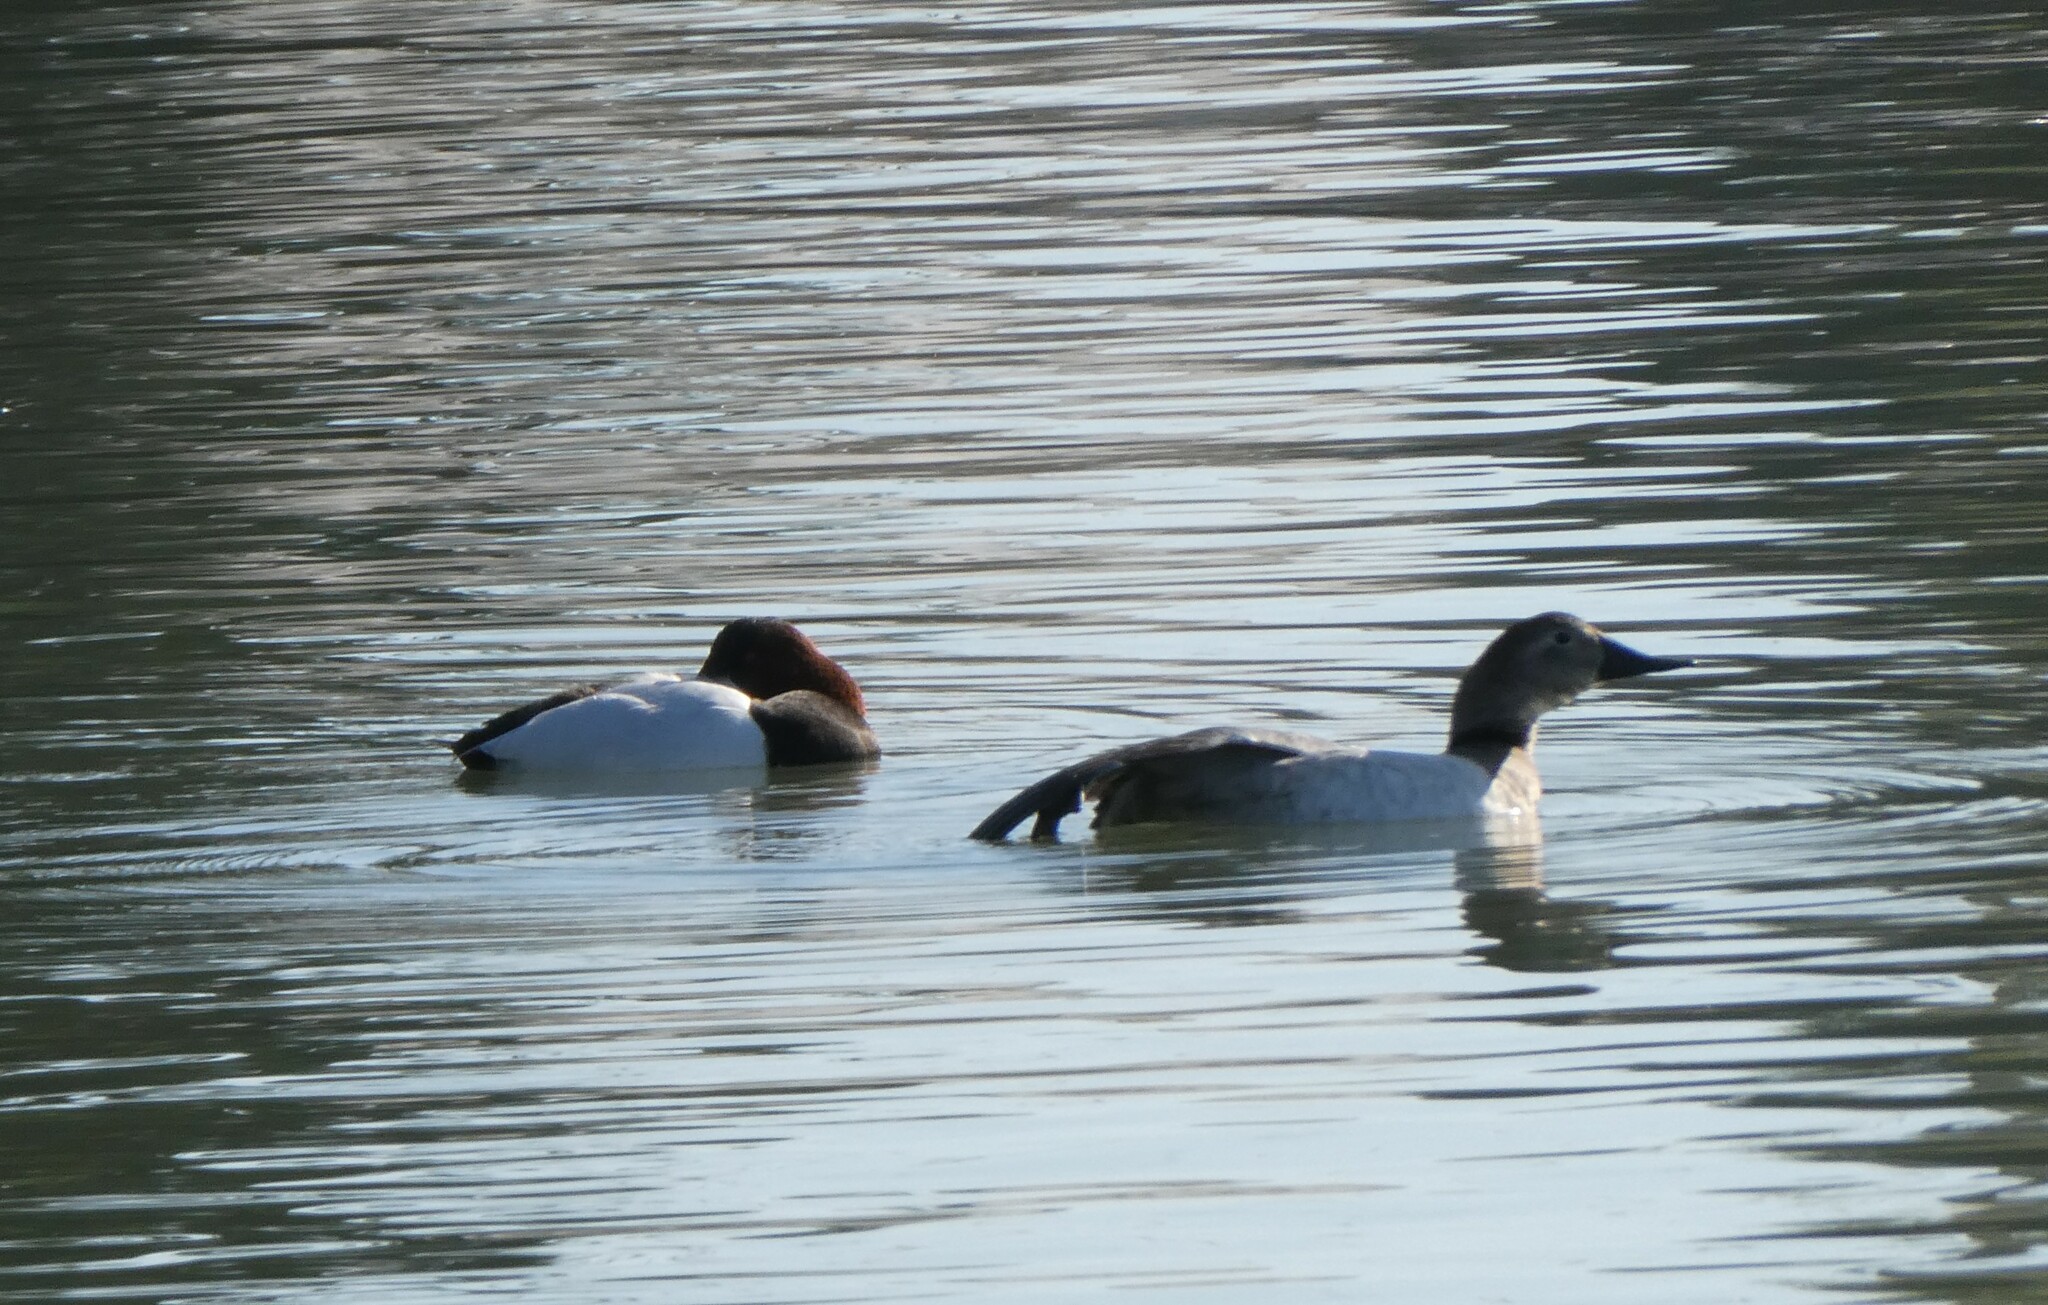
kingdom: Animalia
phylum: Chordata
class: Aves
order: Anseriformes
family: Anatidae
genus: Aythya
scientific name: Aythya valisineria
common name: Canvasback
